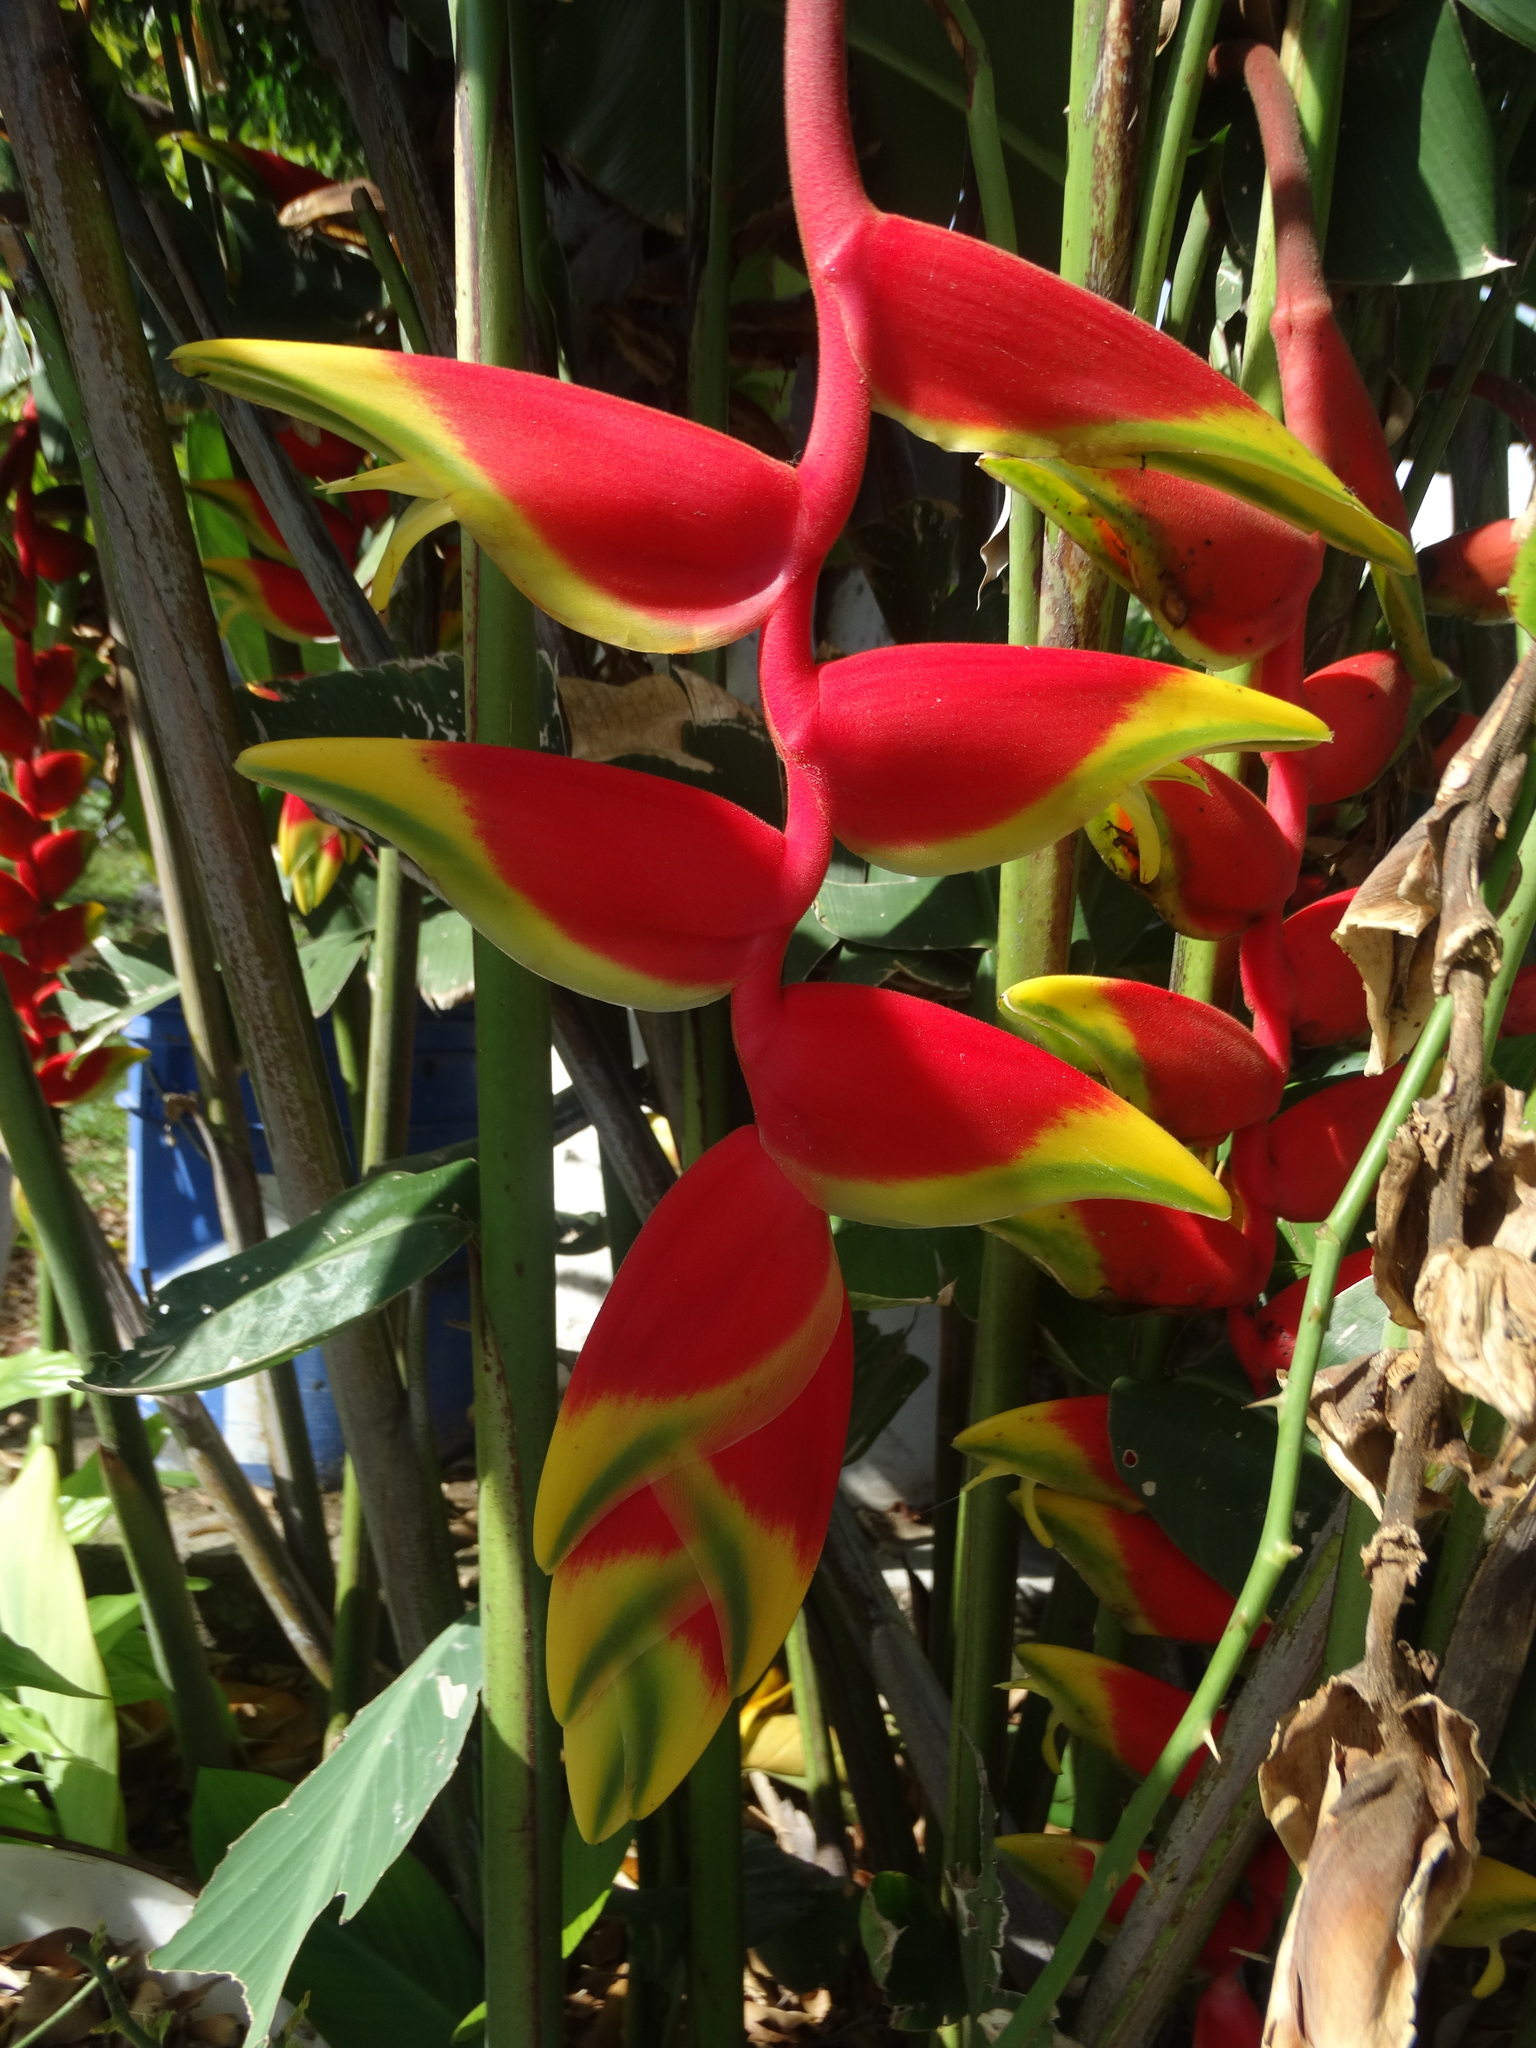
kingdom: Plantae
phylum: Tracheophyta
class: Liliopsida
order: Zingiberales
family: Heliconiaceae
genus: Heliconia
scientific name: Heliconia rostrata
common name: False bird of paradise
